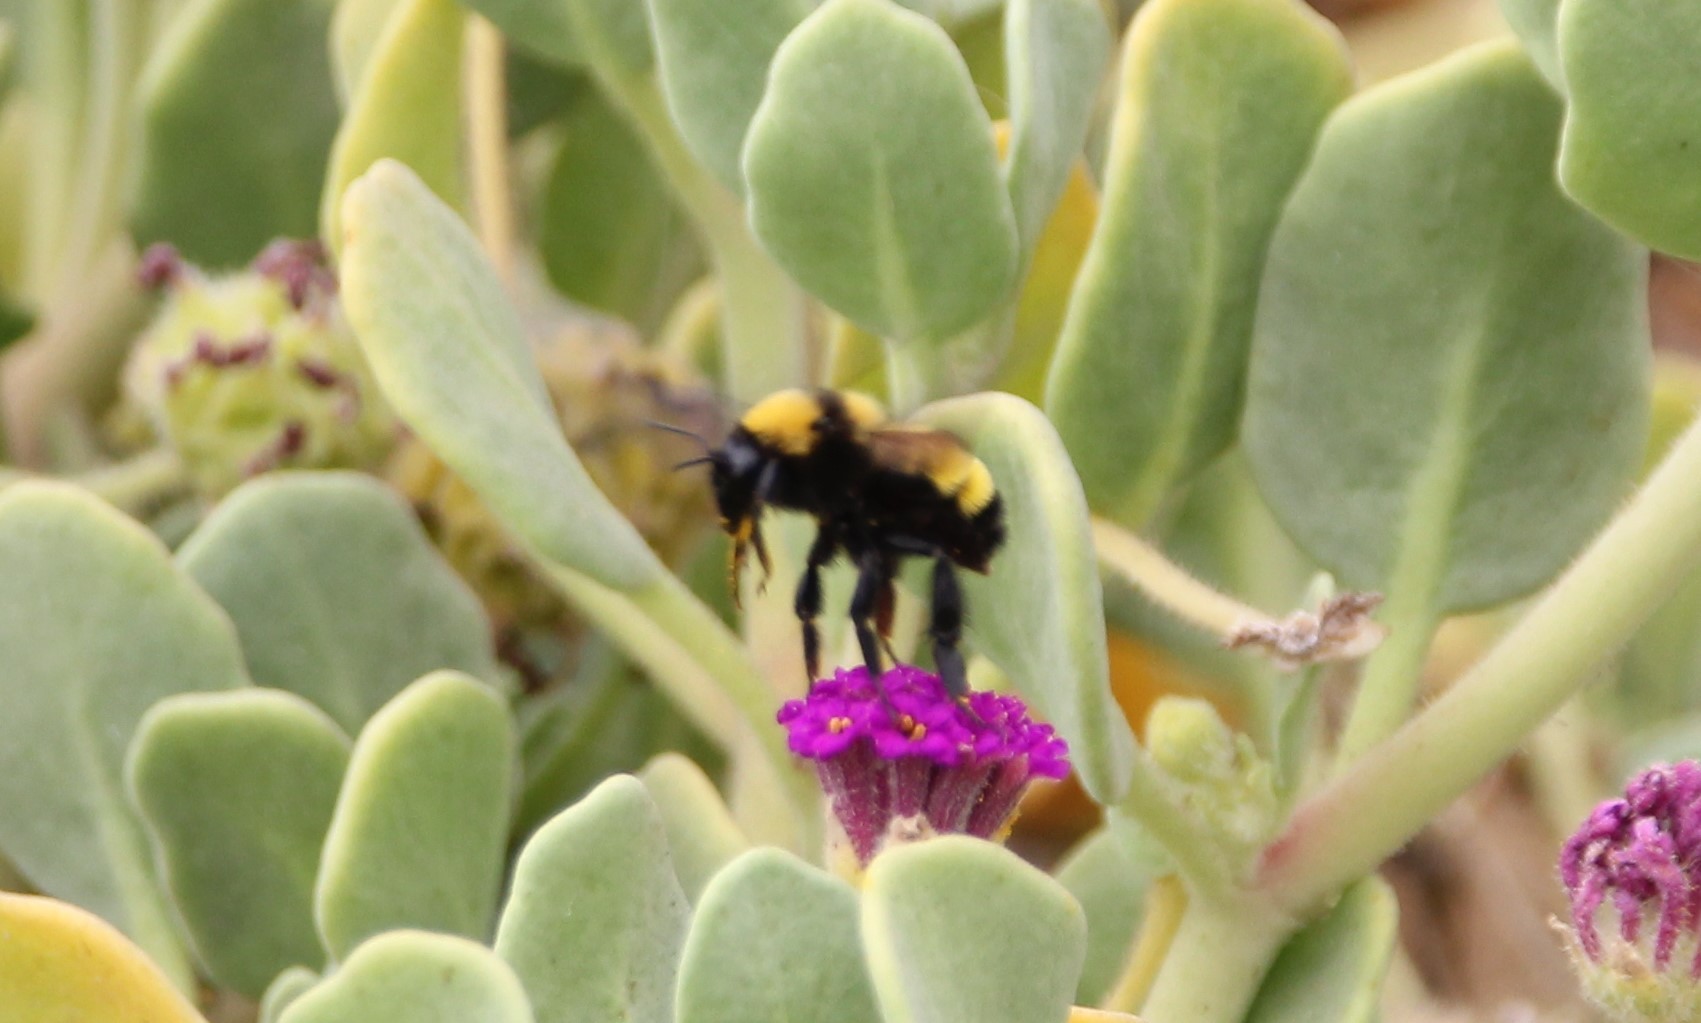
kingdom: Animalia
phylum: Arthropoda
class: Insecta
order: Hymenoptera
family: Apidae
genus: Bombus
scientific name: Bombus sonorus
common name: Sonoran bumble bee
